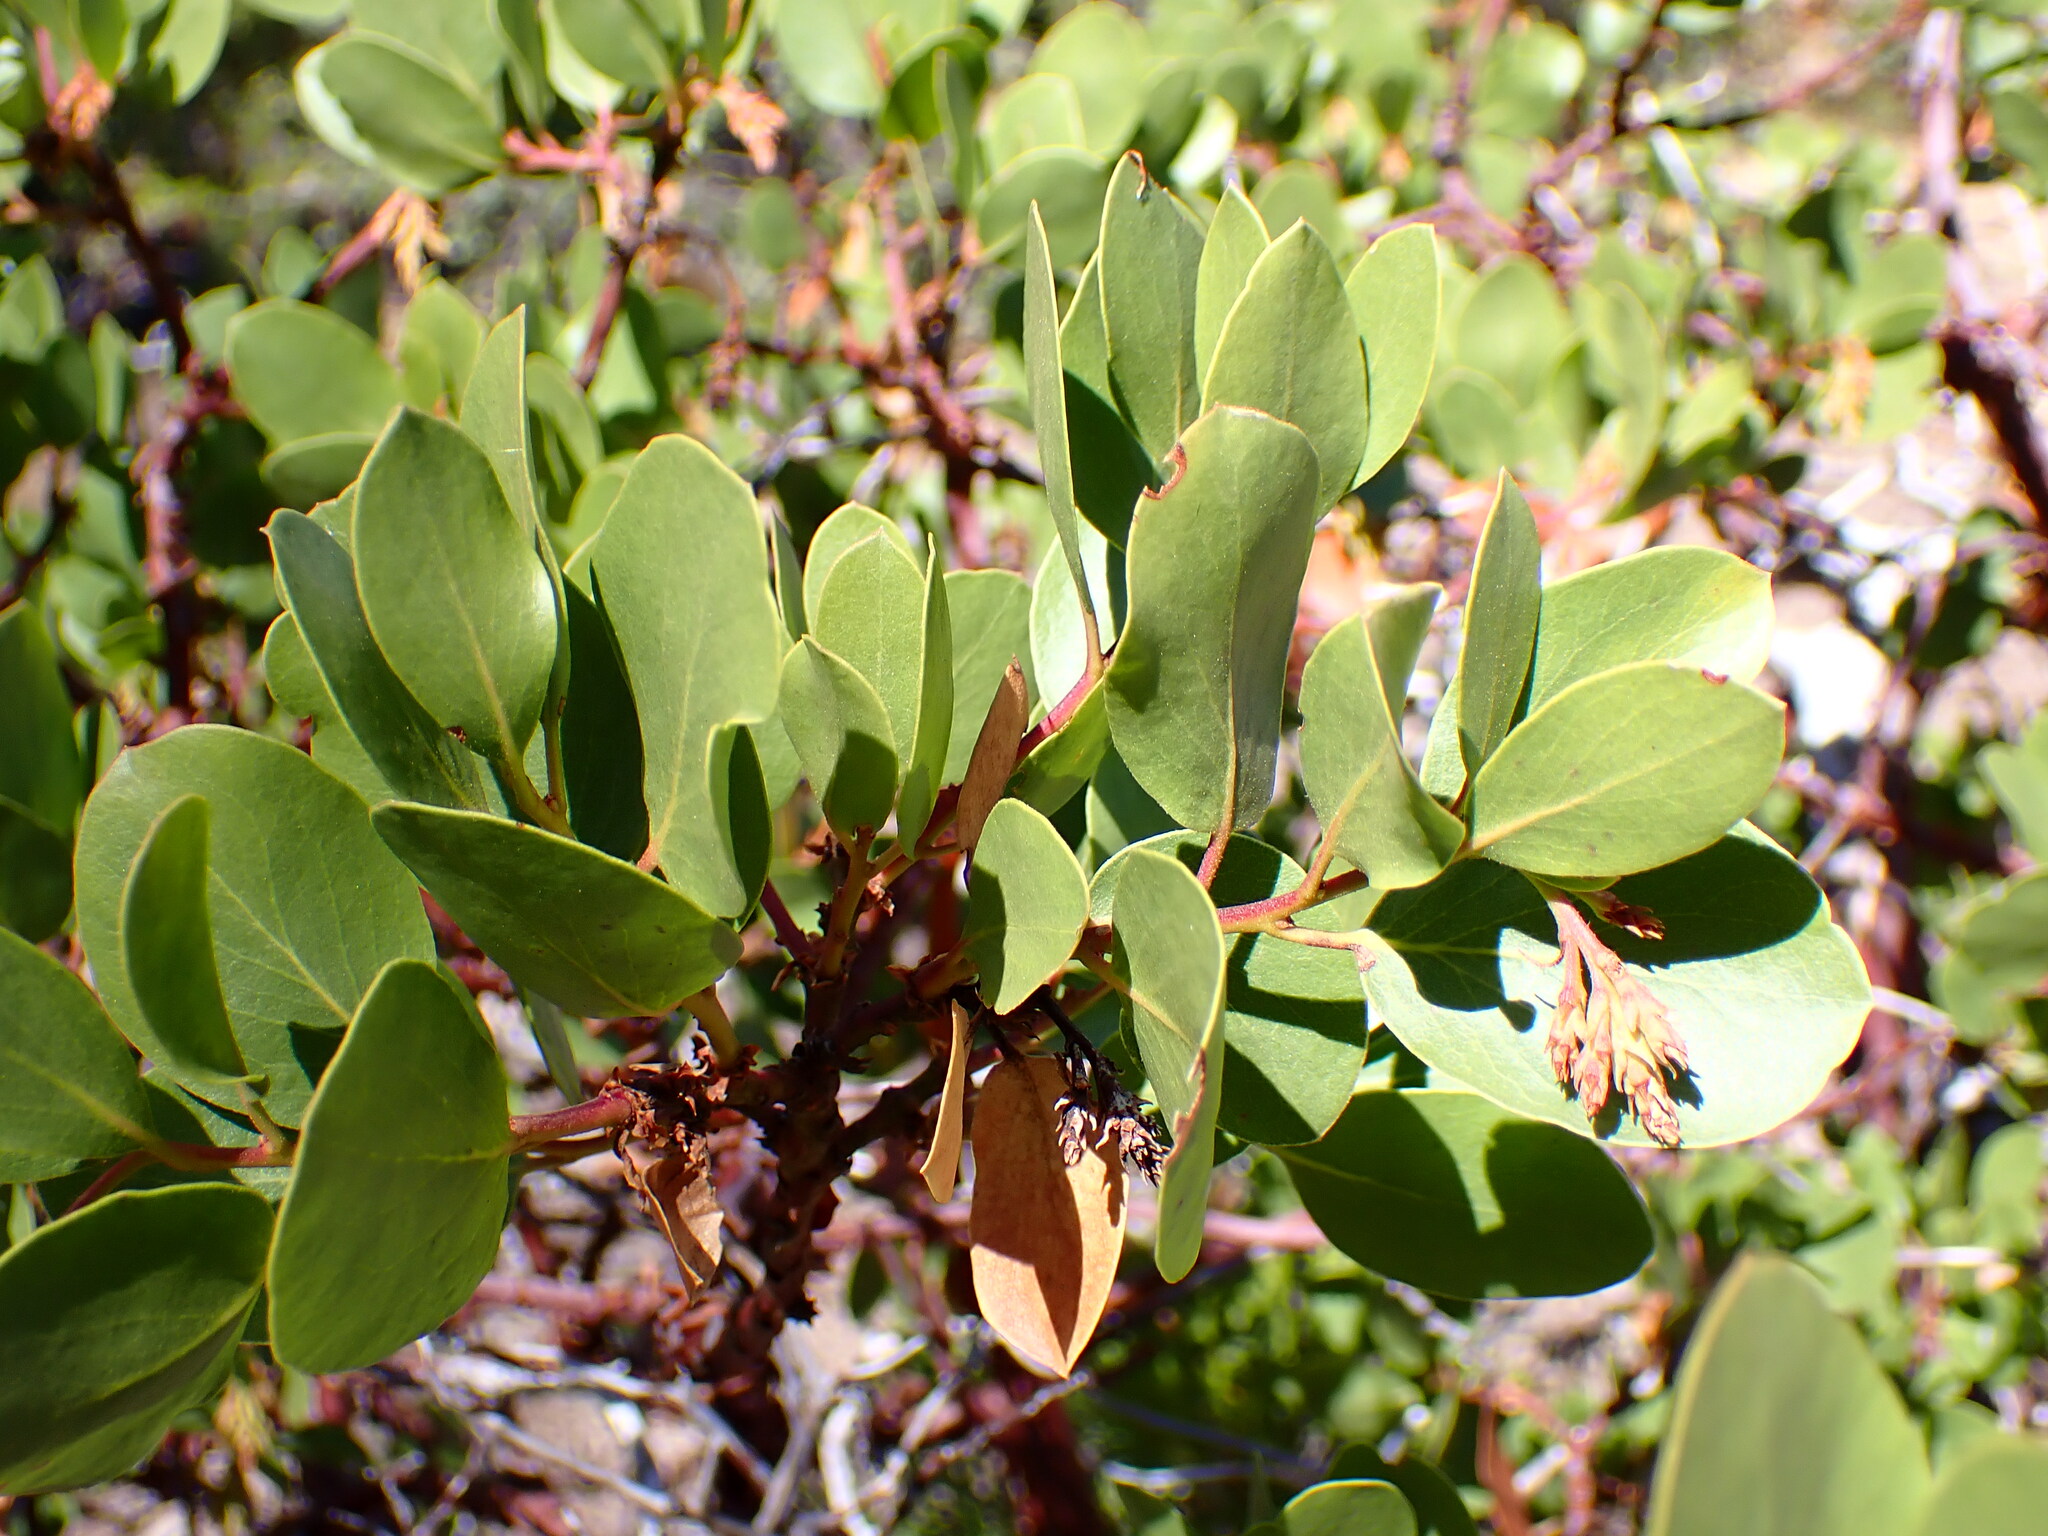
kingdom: Plantae
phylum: Tracheophyta
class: Magnoliopsida
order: Ericales
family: Ericaceae
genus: Arctostaphylos
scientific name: Arctostaphylos patula
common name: Green-leaf manzanita
